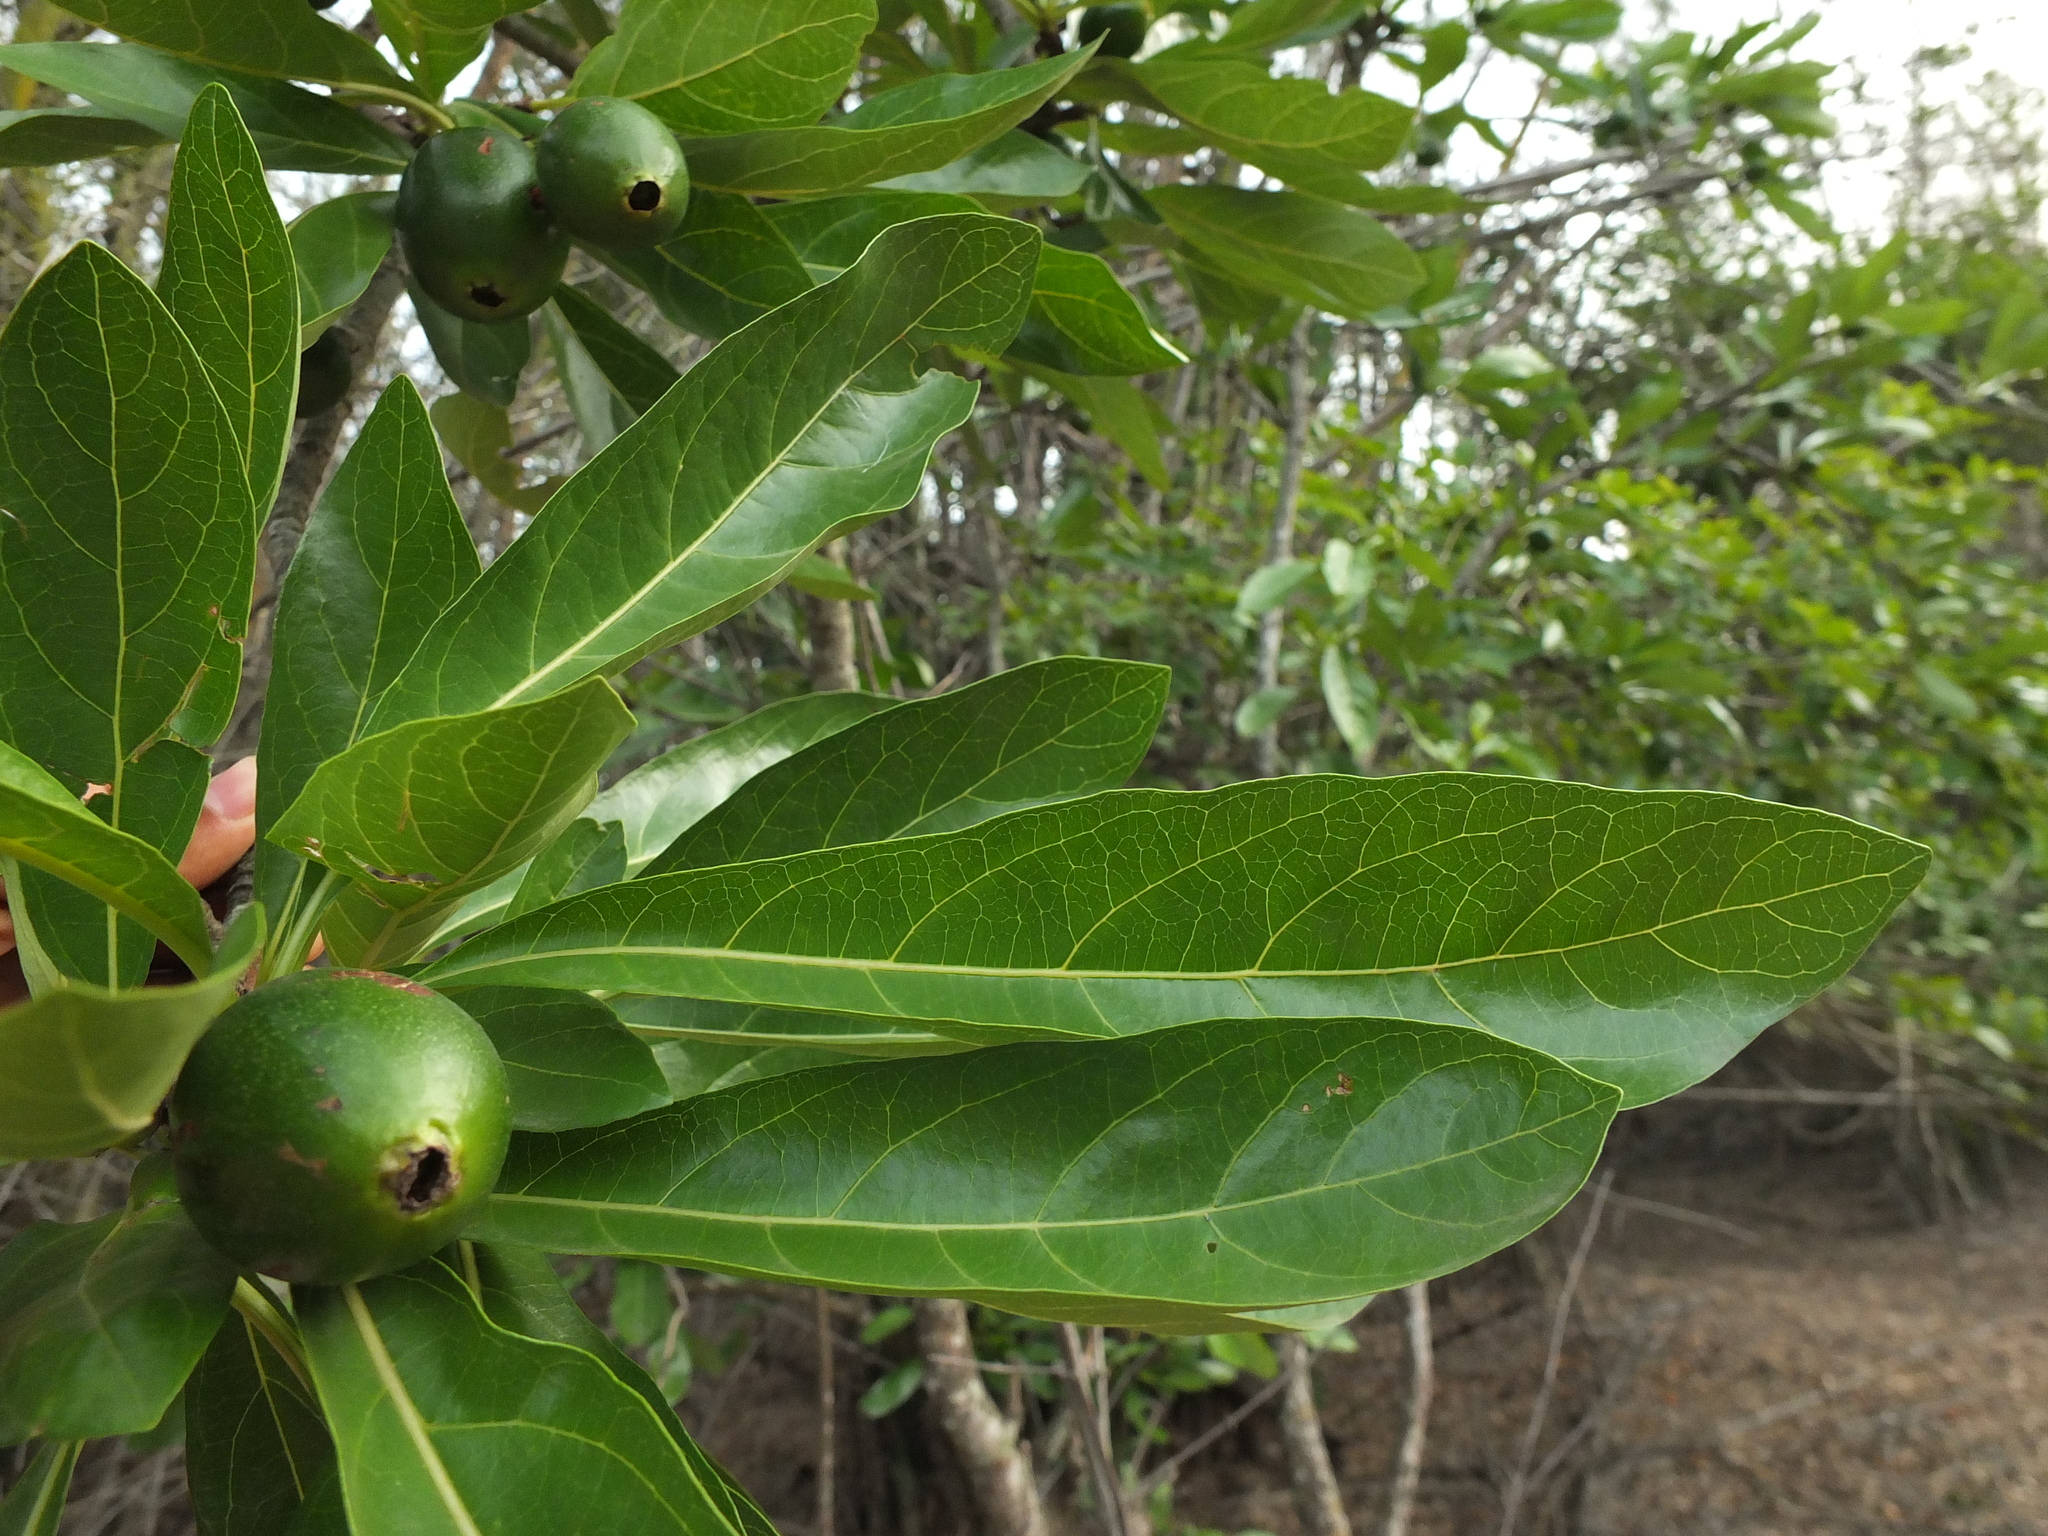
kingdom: Plantae
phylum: Tracheophyta
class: Magnoliopsida
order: Gentianales
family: Rubiaceae
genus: Tamilnadia
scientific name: Tamilnadia uliginosa
